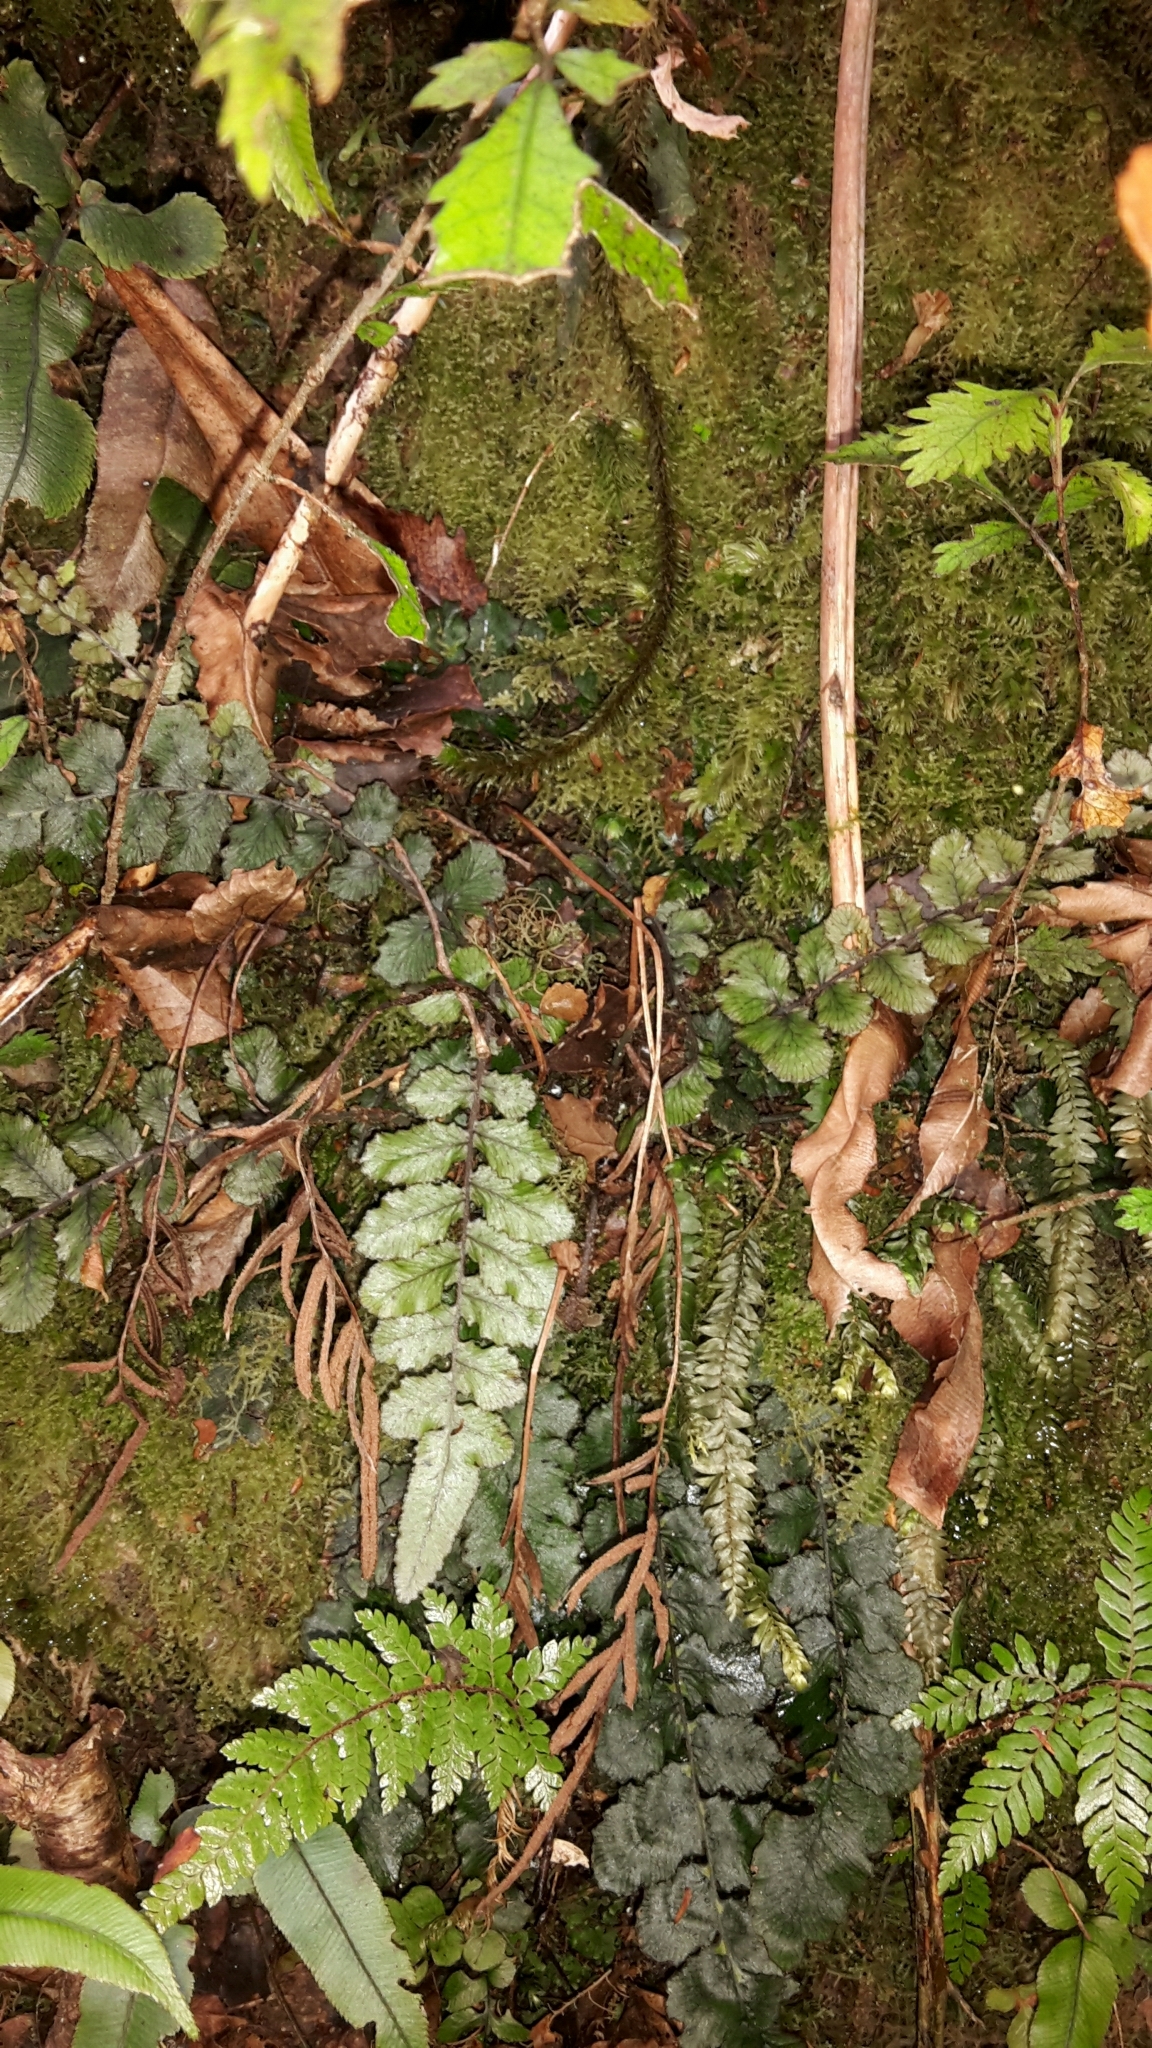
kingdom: Plantae
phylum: Tracheophyta
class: Polypodiopsida
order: Polypodiales
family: Blechnaceae
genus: Cranfillia
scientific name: Cranfillia nigra
